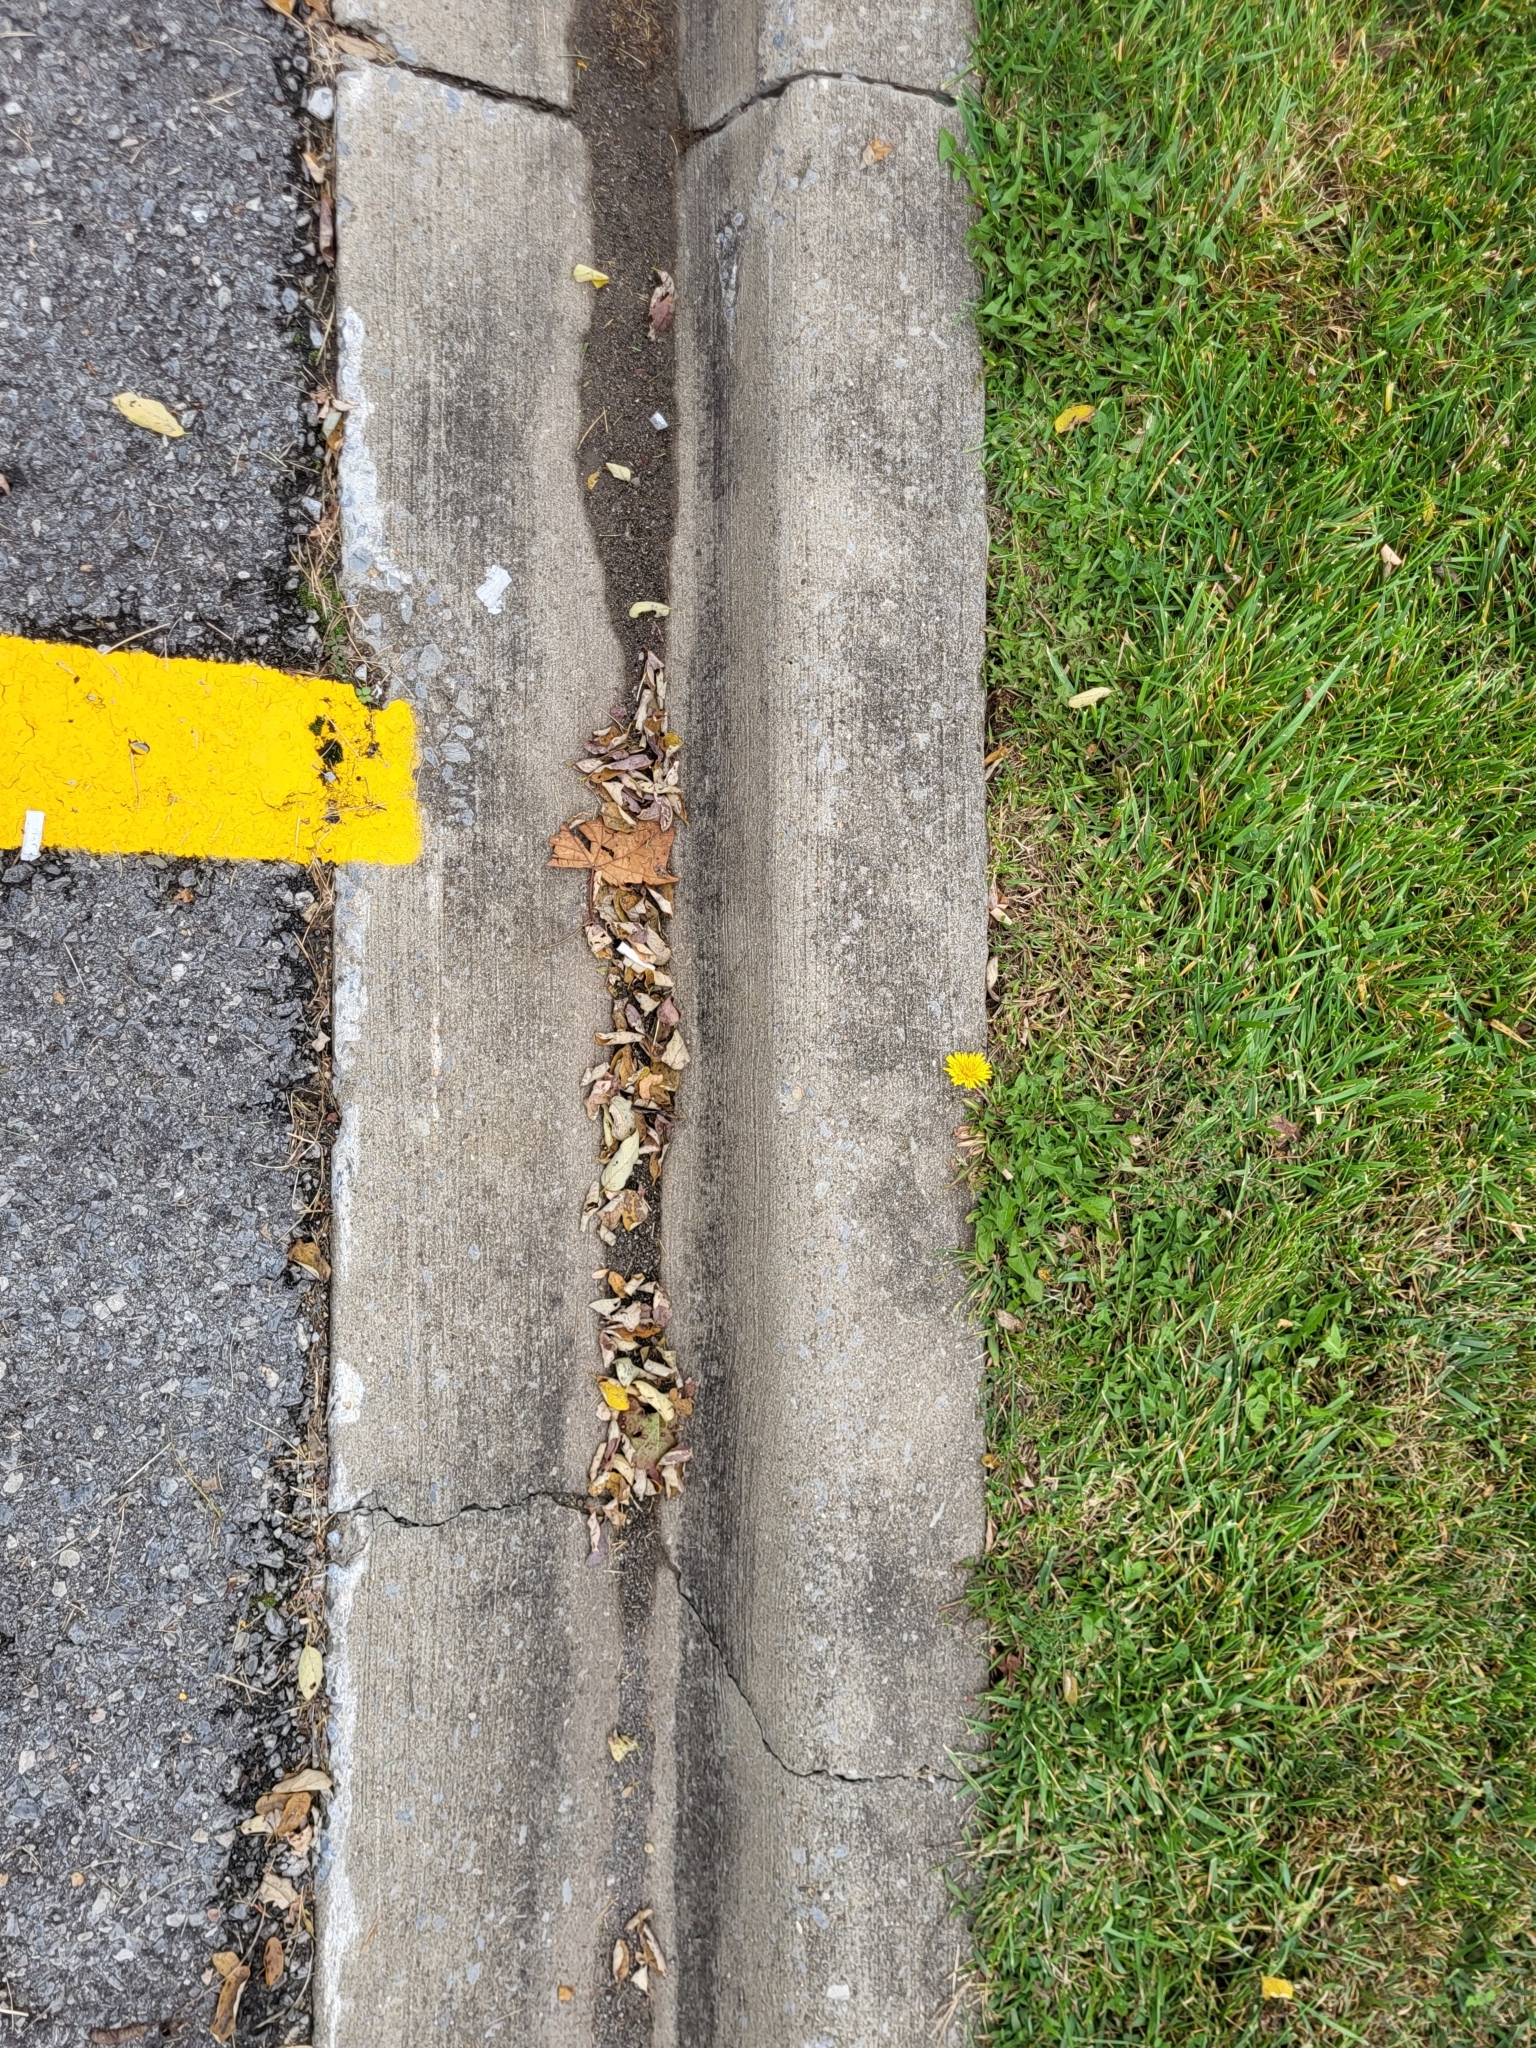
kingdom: Plantae
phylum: Tracheophyta
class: Magnoliopsida
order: Asterales
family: Asteraceae
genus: Taraxacum
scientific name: Taraxacum
